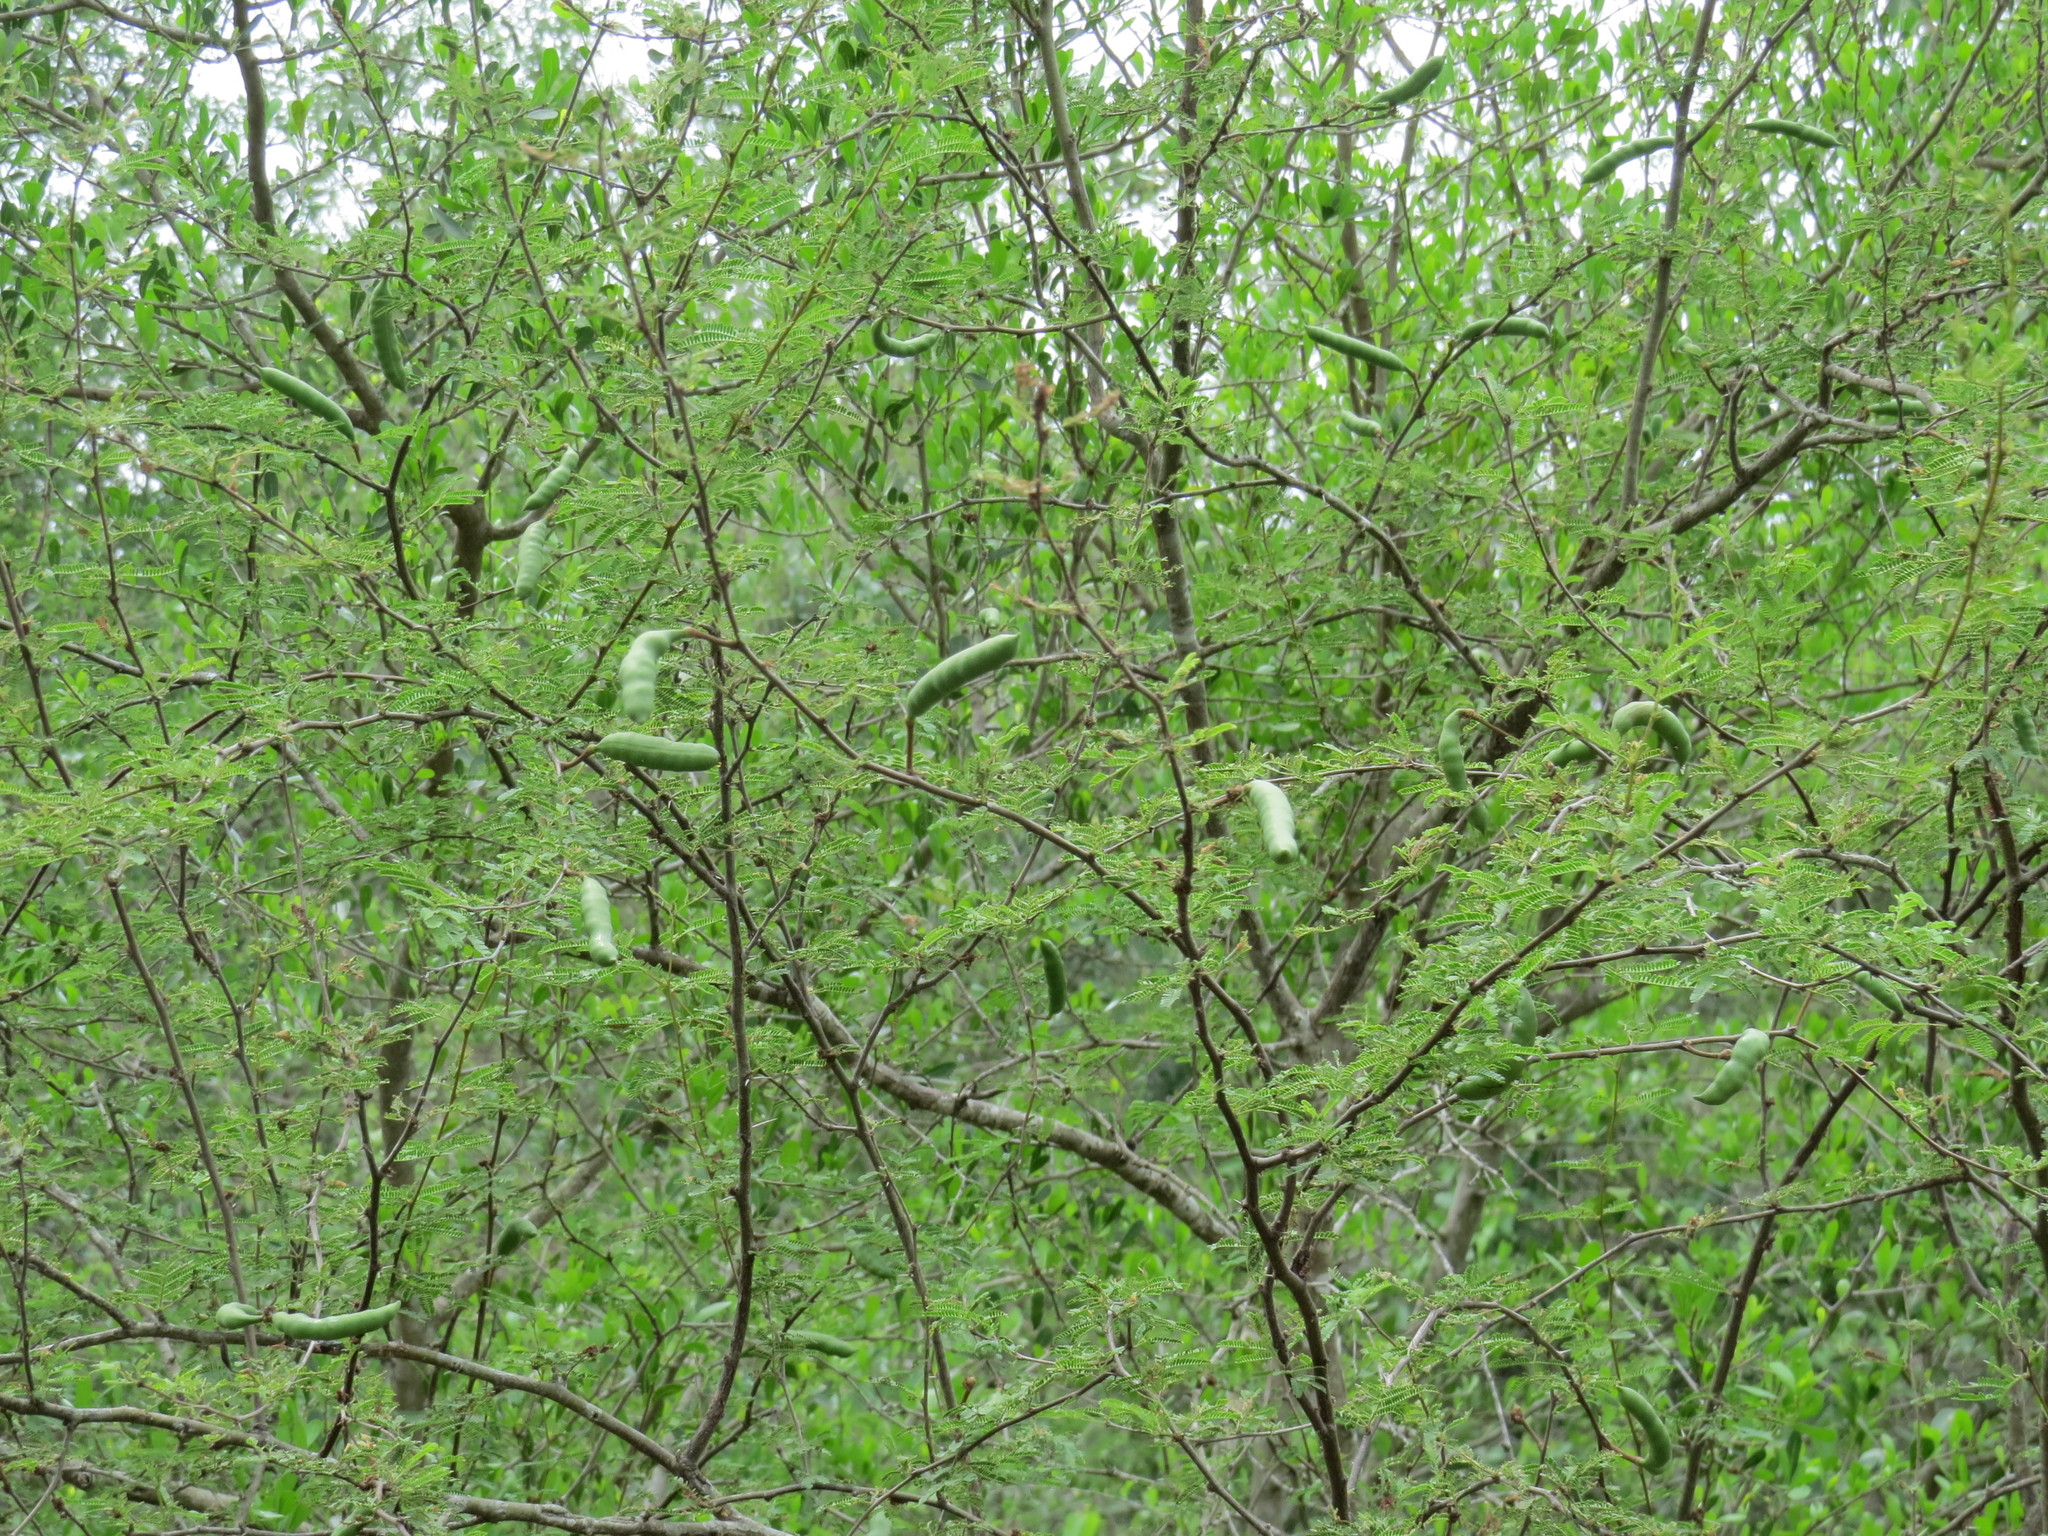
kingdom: Plantae
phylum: Tracheophyta
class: Magnoliopsida
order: Fabales
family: Fabaceae
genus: Vachellia
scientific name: Vachellia farnesiana
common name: Sweet acacia
